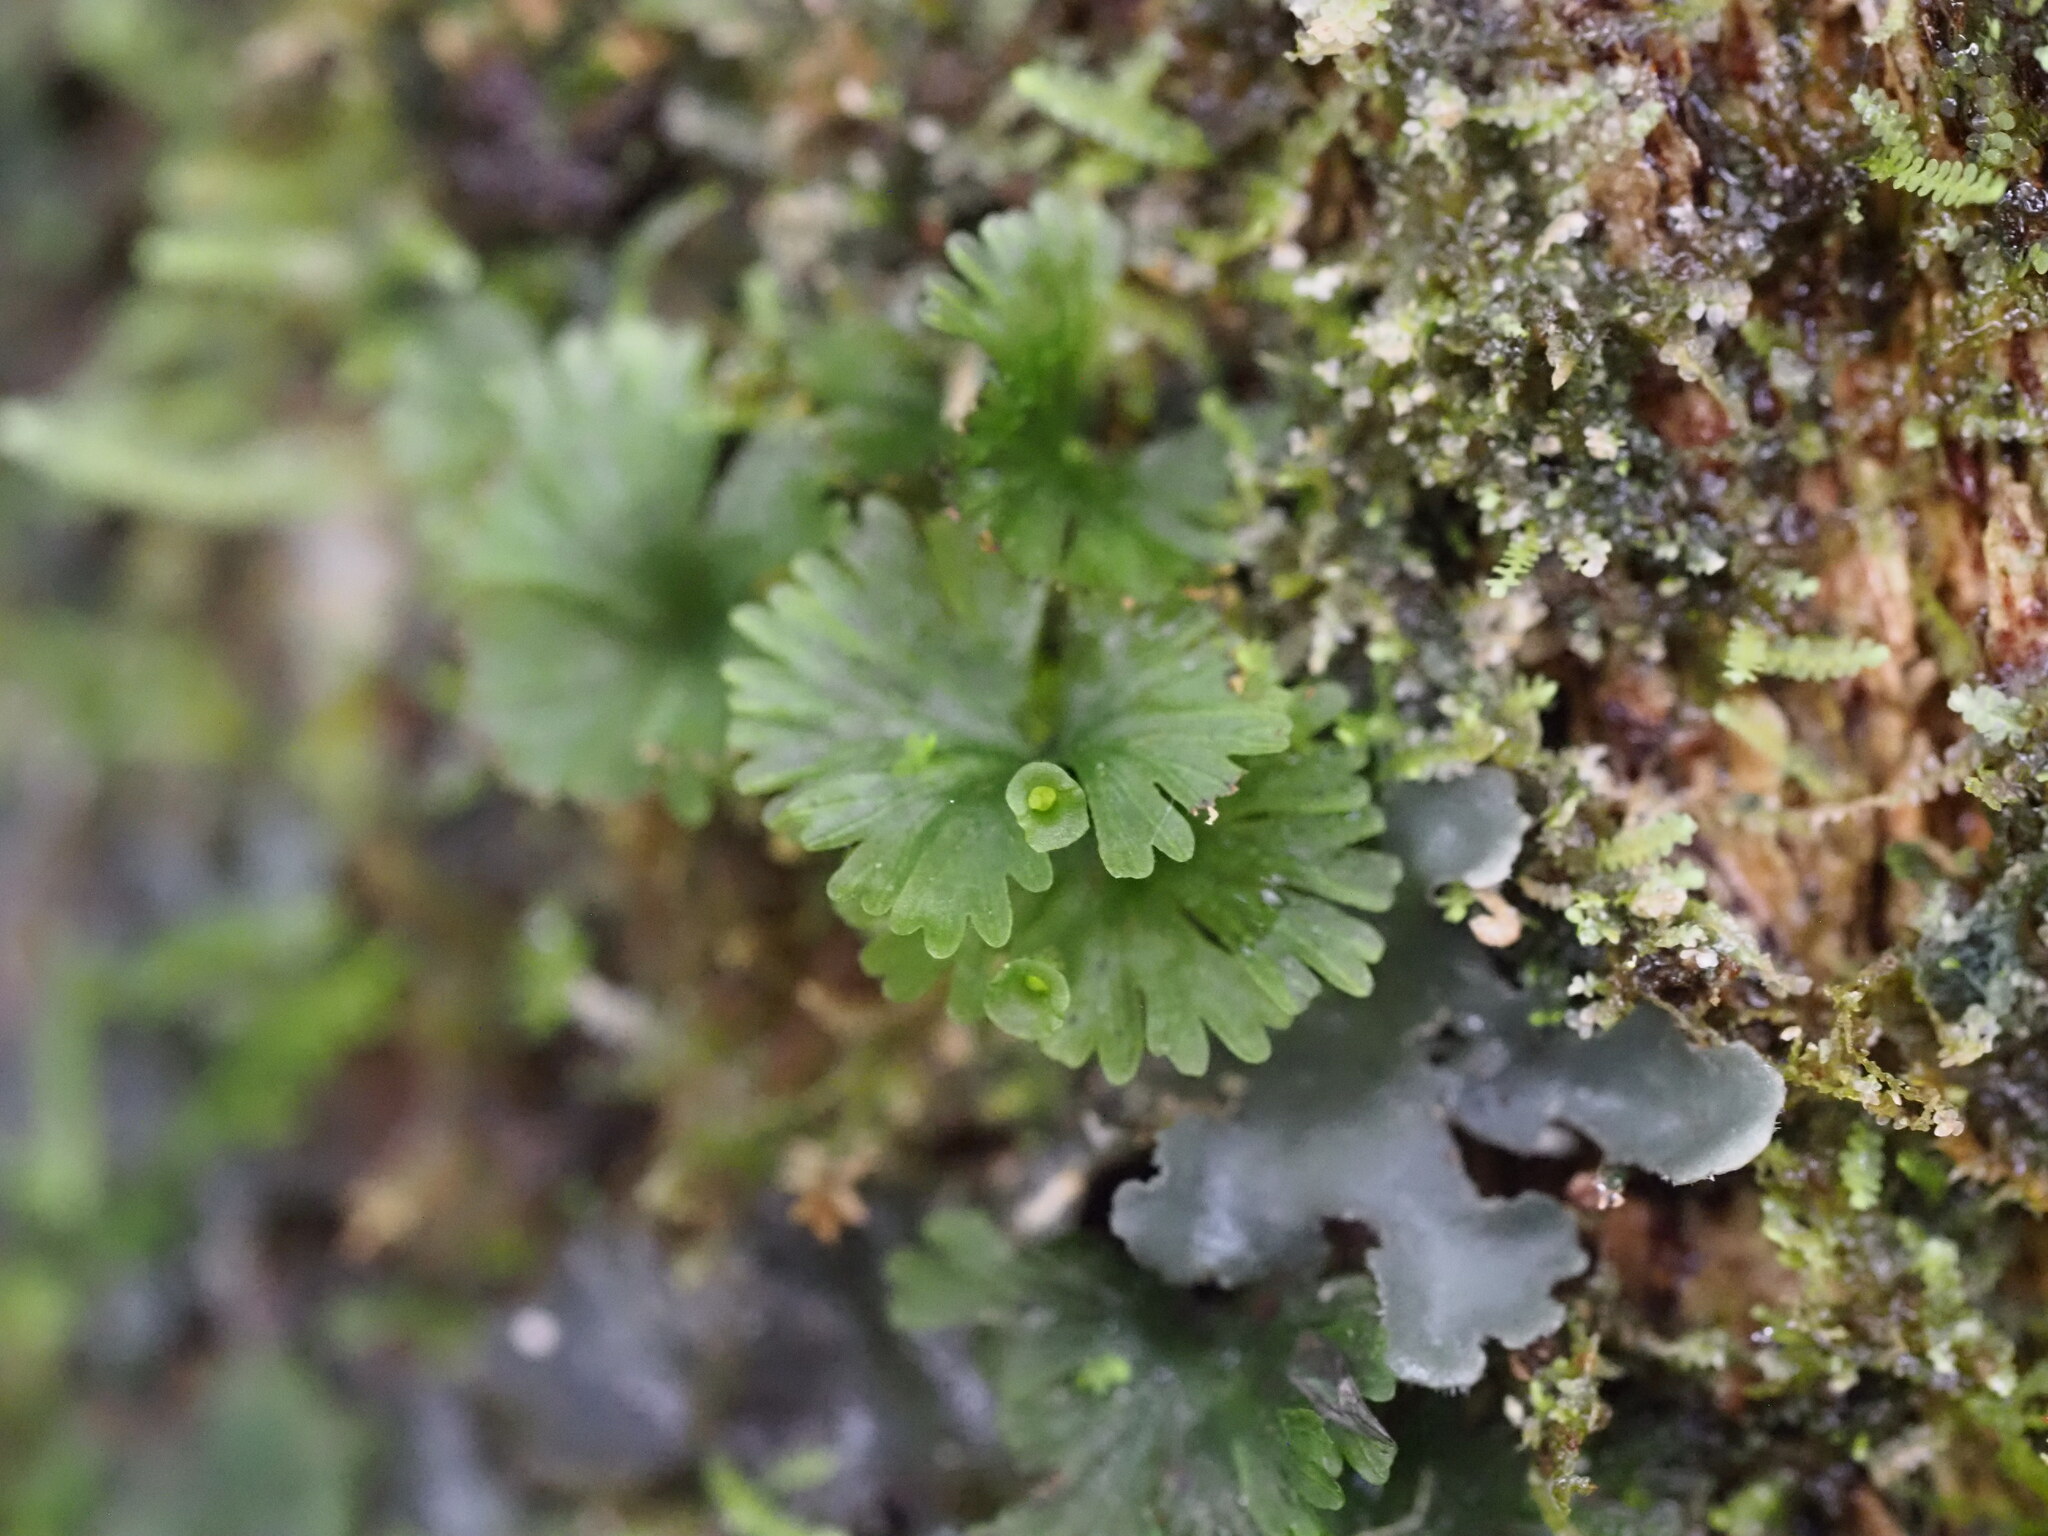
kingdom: Plantae
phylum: Tracheophyta
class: Polypodiopsida
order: Hymenophyllales
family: Hymenophyllaceae
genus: Crepidomanes
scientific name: Crepidomanes parvulum
